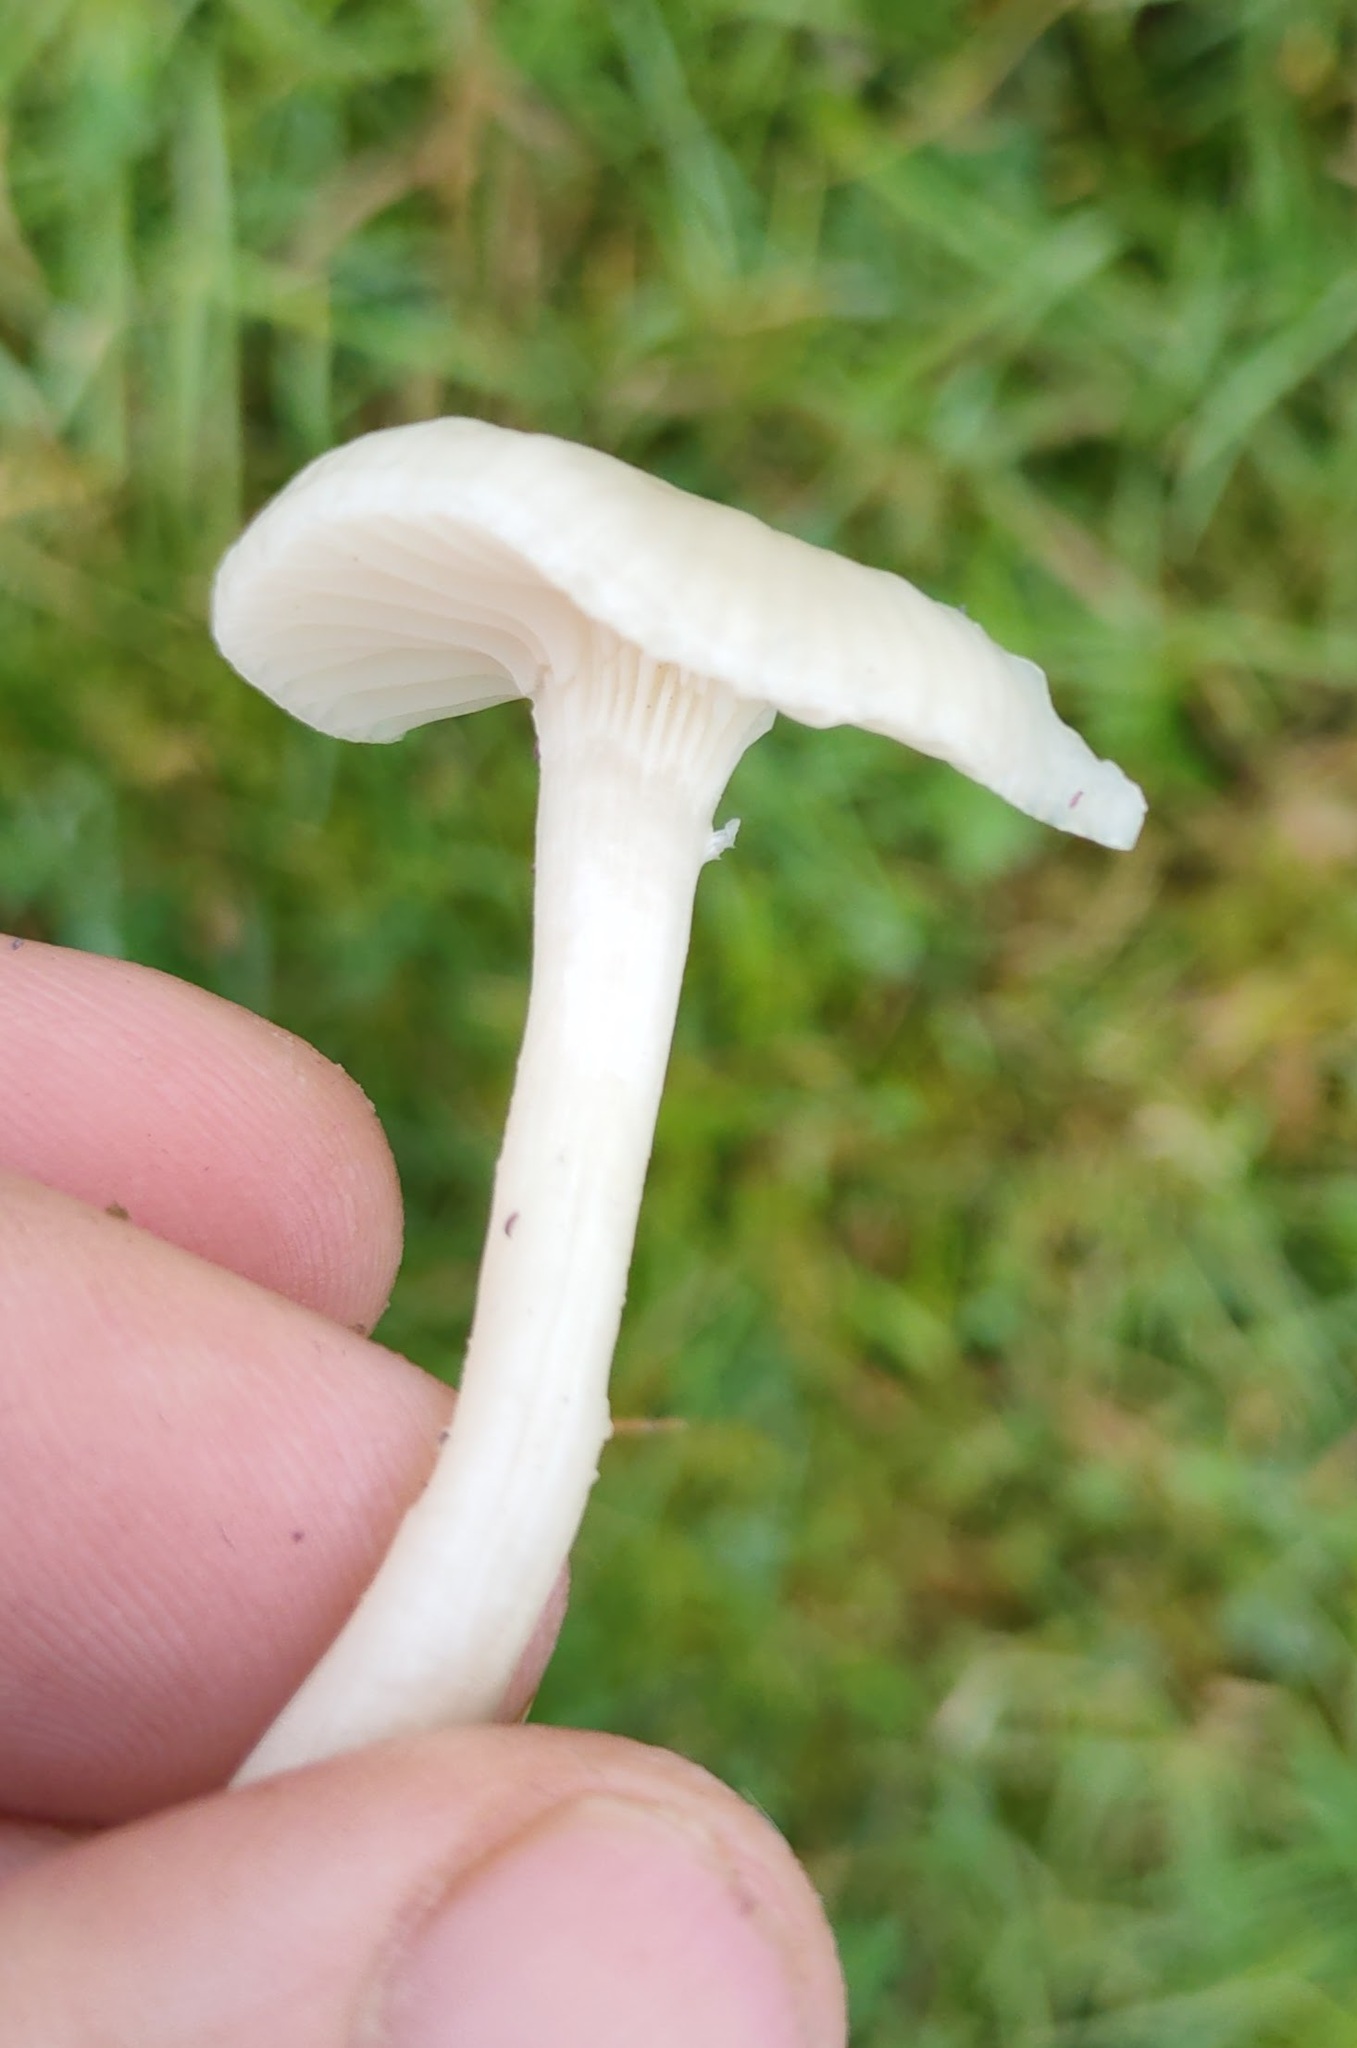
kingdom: Fungi
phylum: Basidiomycota
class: Agaricomycetes
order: Agaricales
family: Hygrophoraceae
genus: Cuphophyllus
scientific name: Cuphophyllus virgineus
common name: Snowy waxcap
